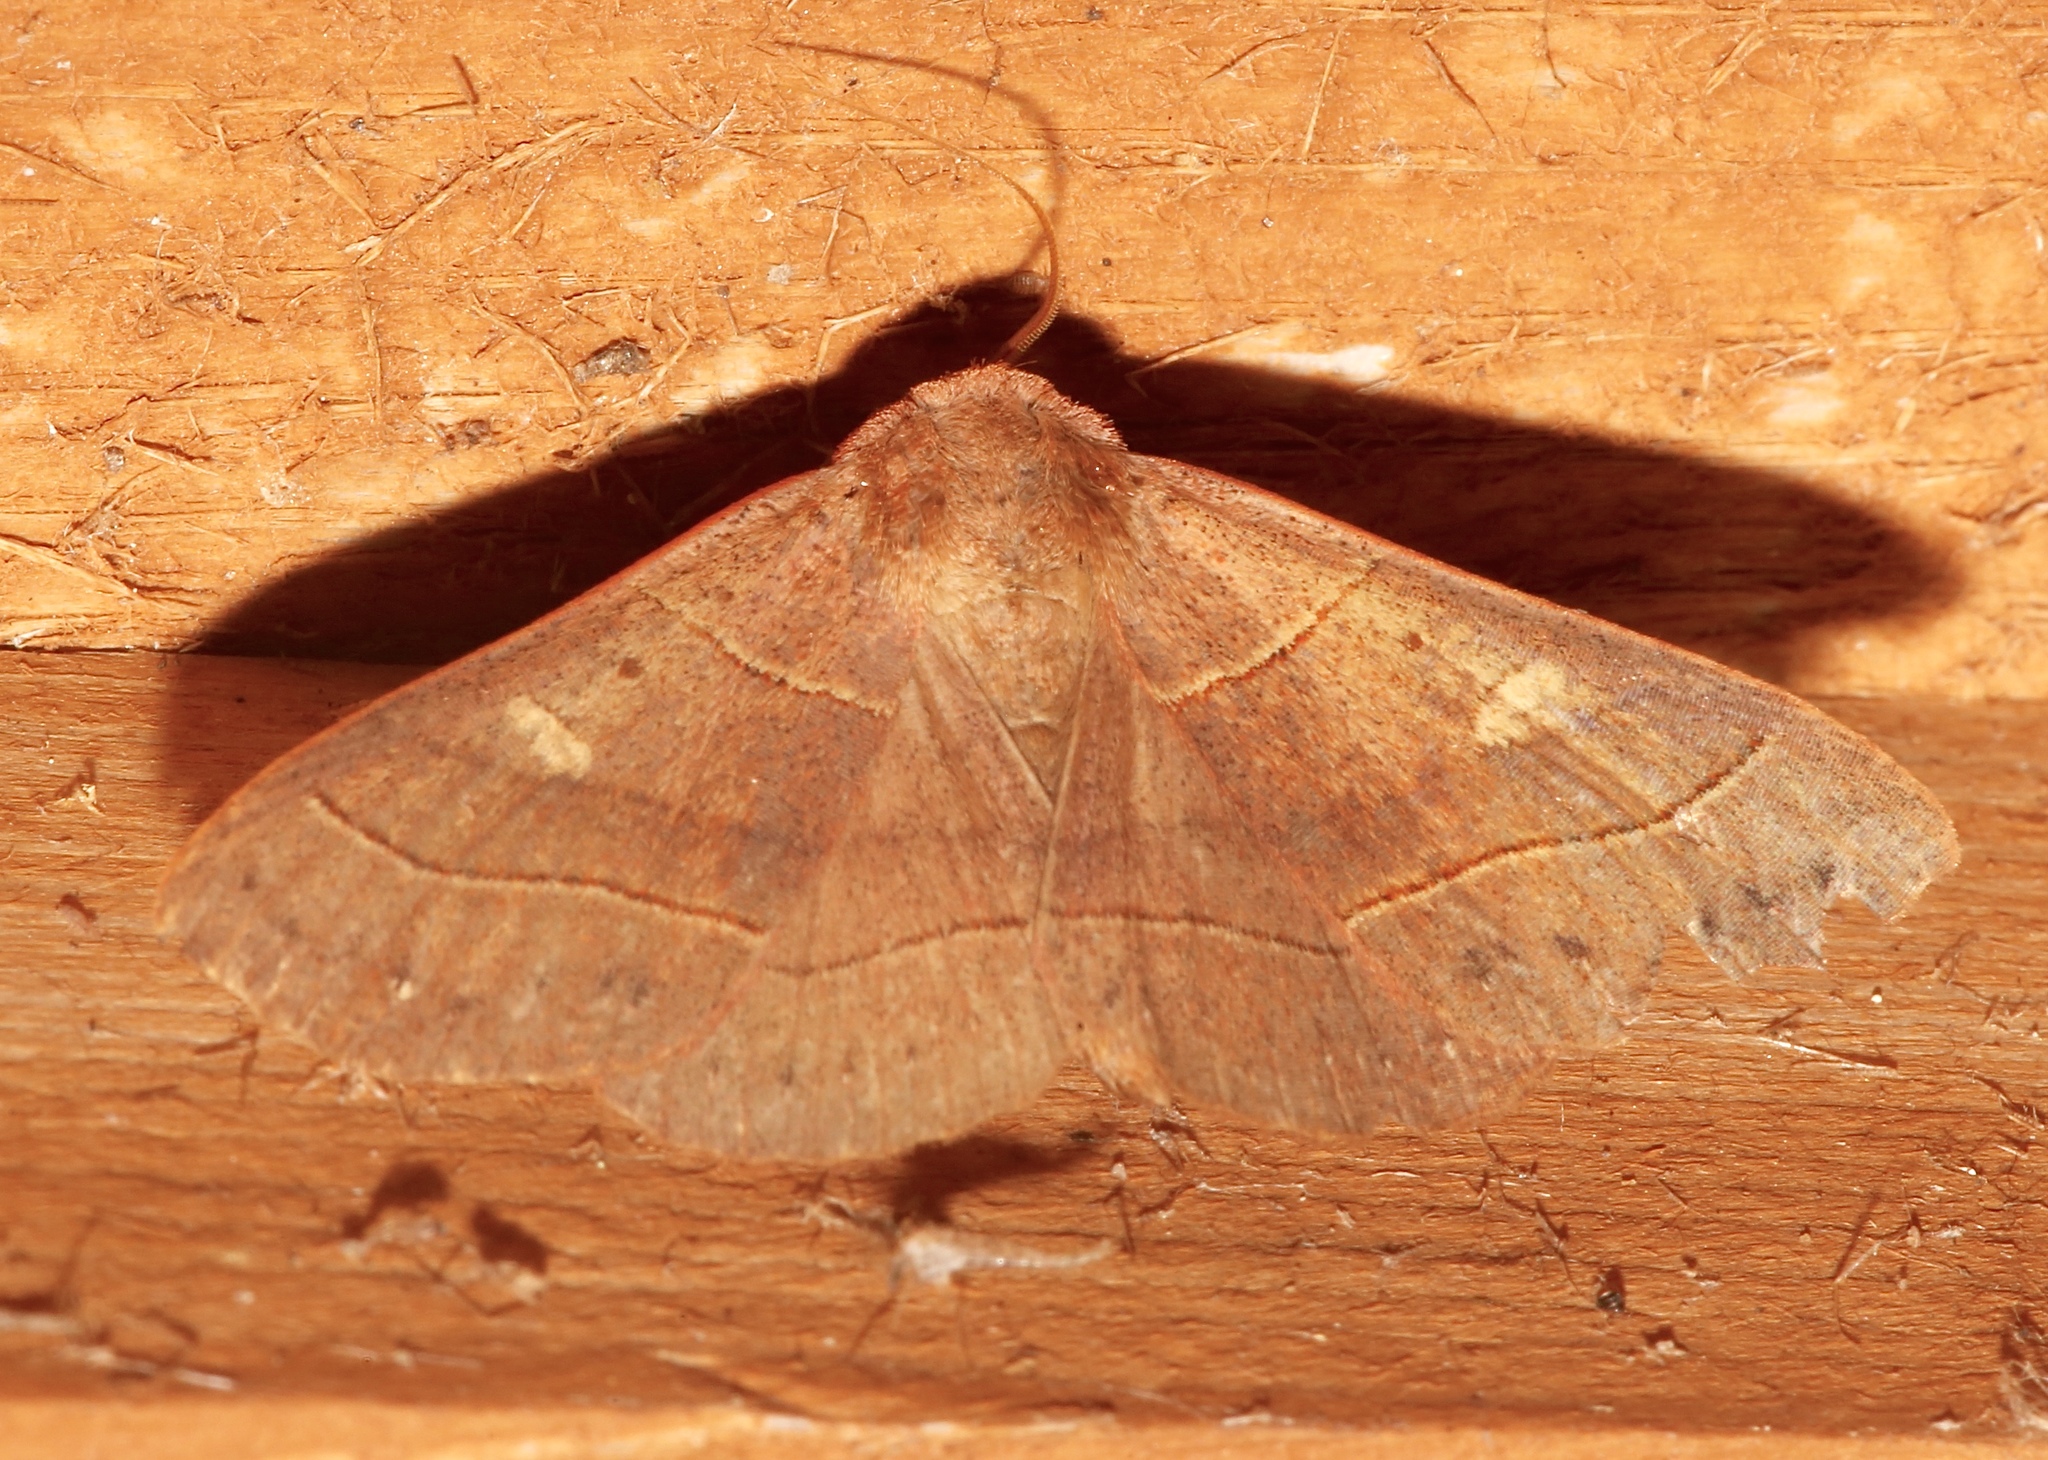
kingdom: Animalia
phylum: Arthropoda
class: Insecta
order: Lepidoptera
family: Erebidae
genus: Panopoda
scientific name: Panopoda rufimargo
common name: Red-lined panopoda moth
